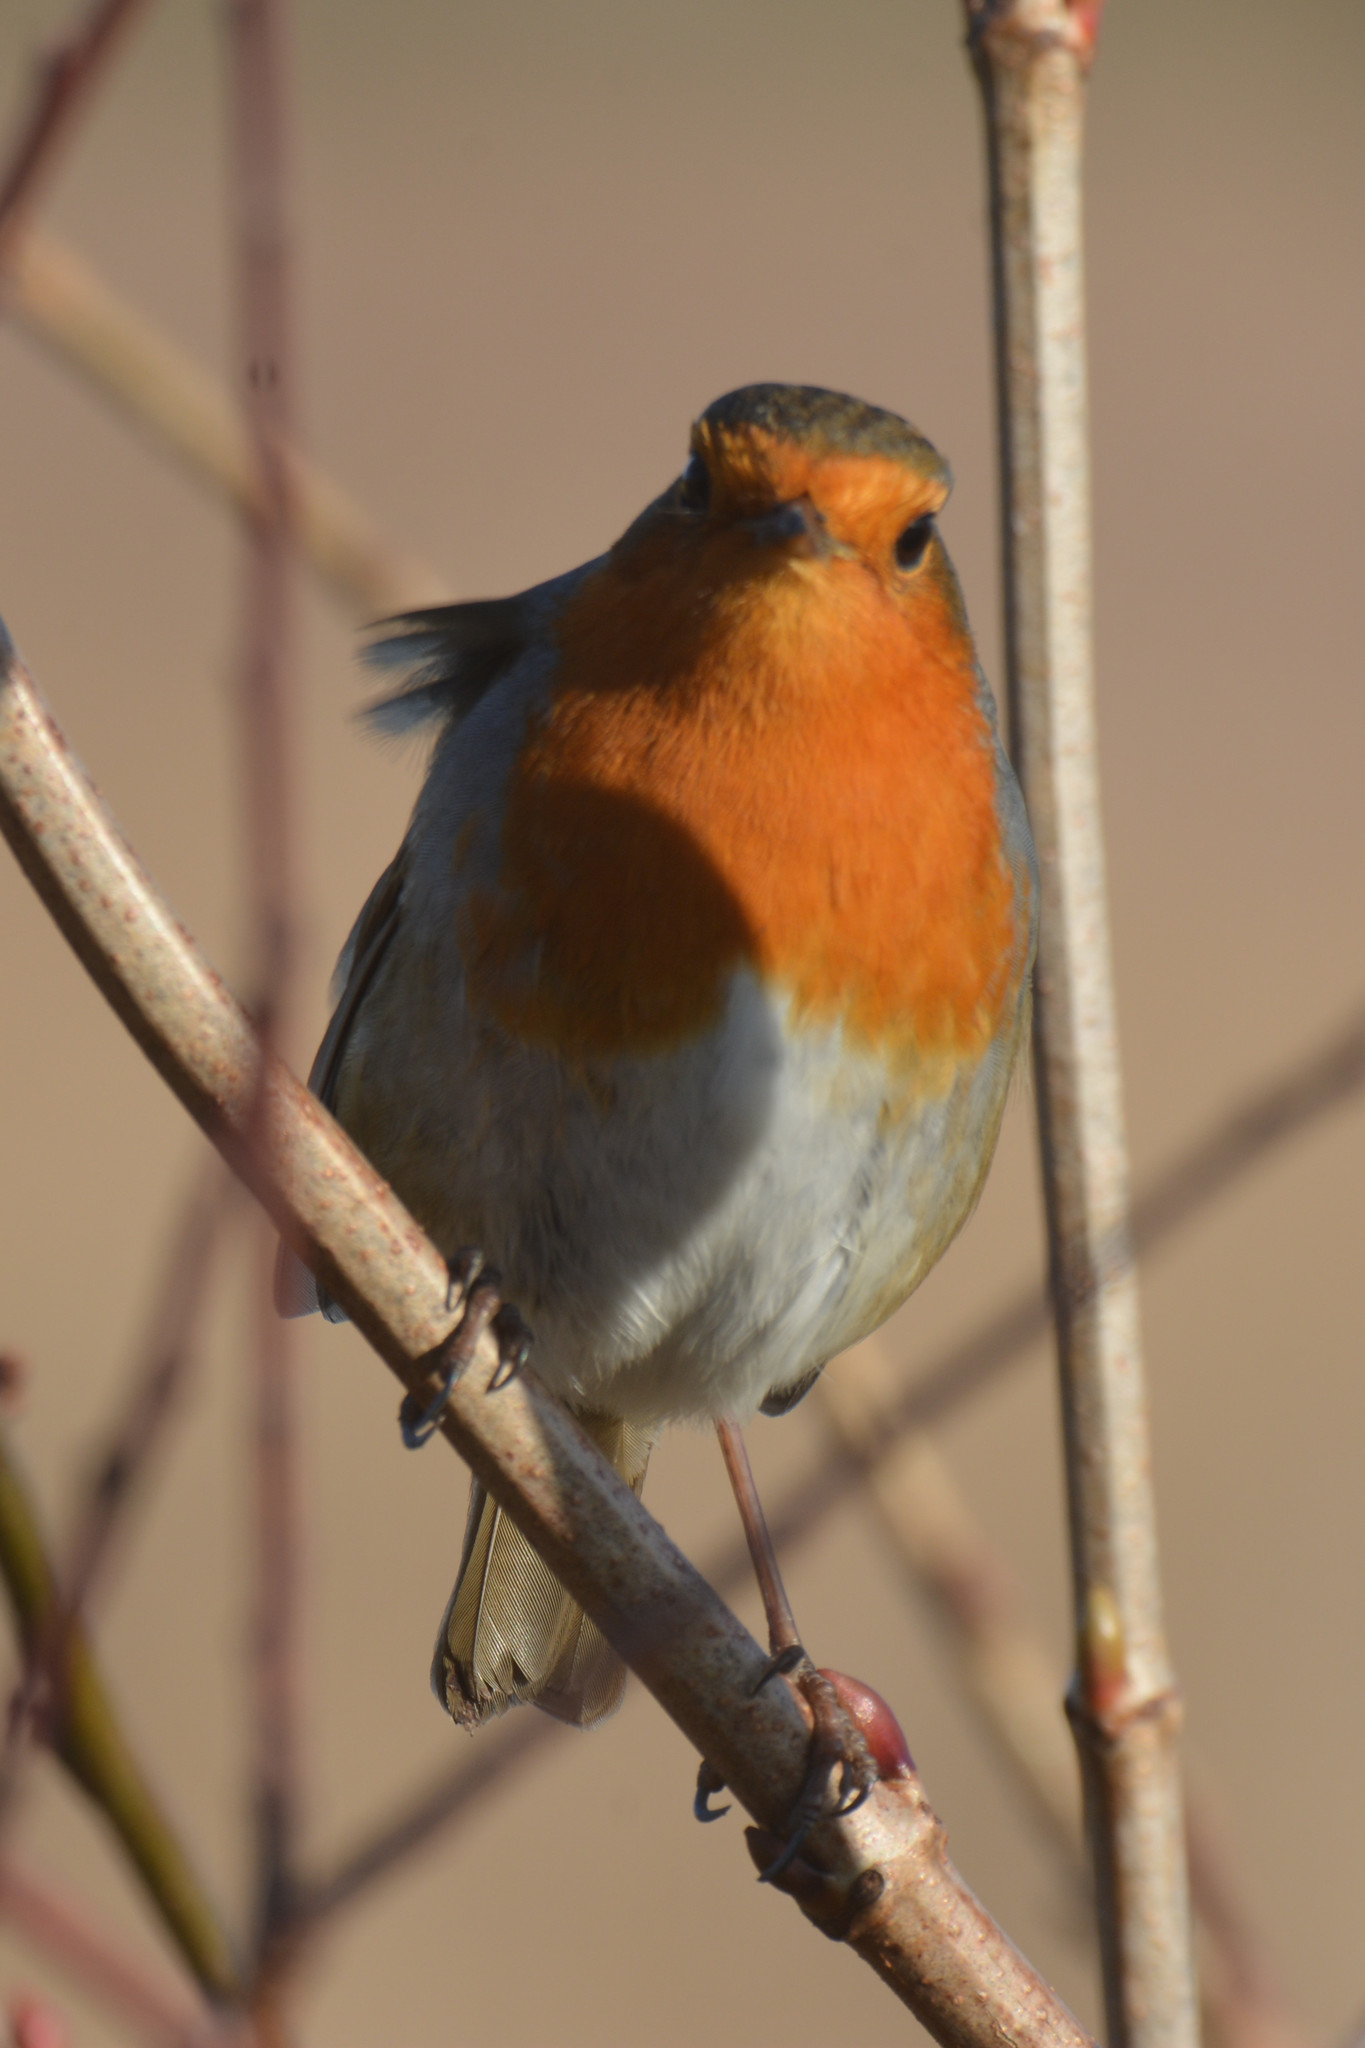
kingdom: Animalia
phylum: Chordata
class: Aves
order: Passeriformes
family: Muscicapidae
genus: Erithacus
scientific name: Erithacus rubecula
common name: European robin
